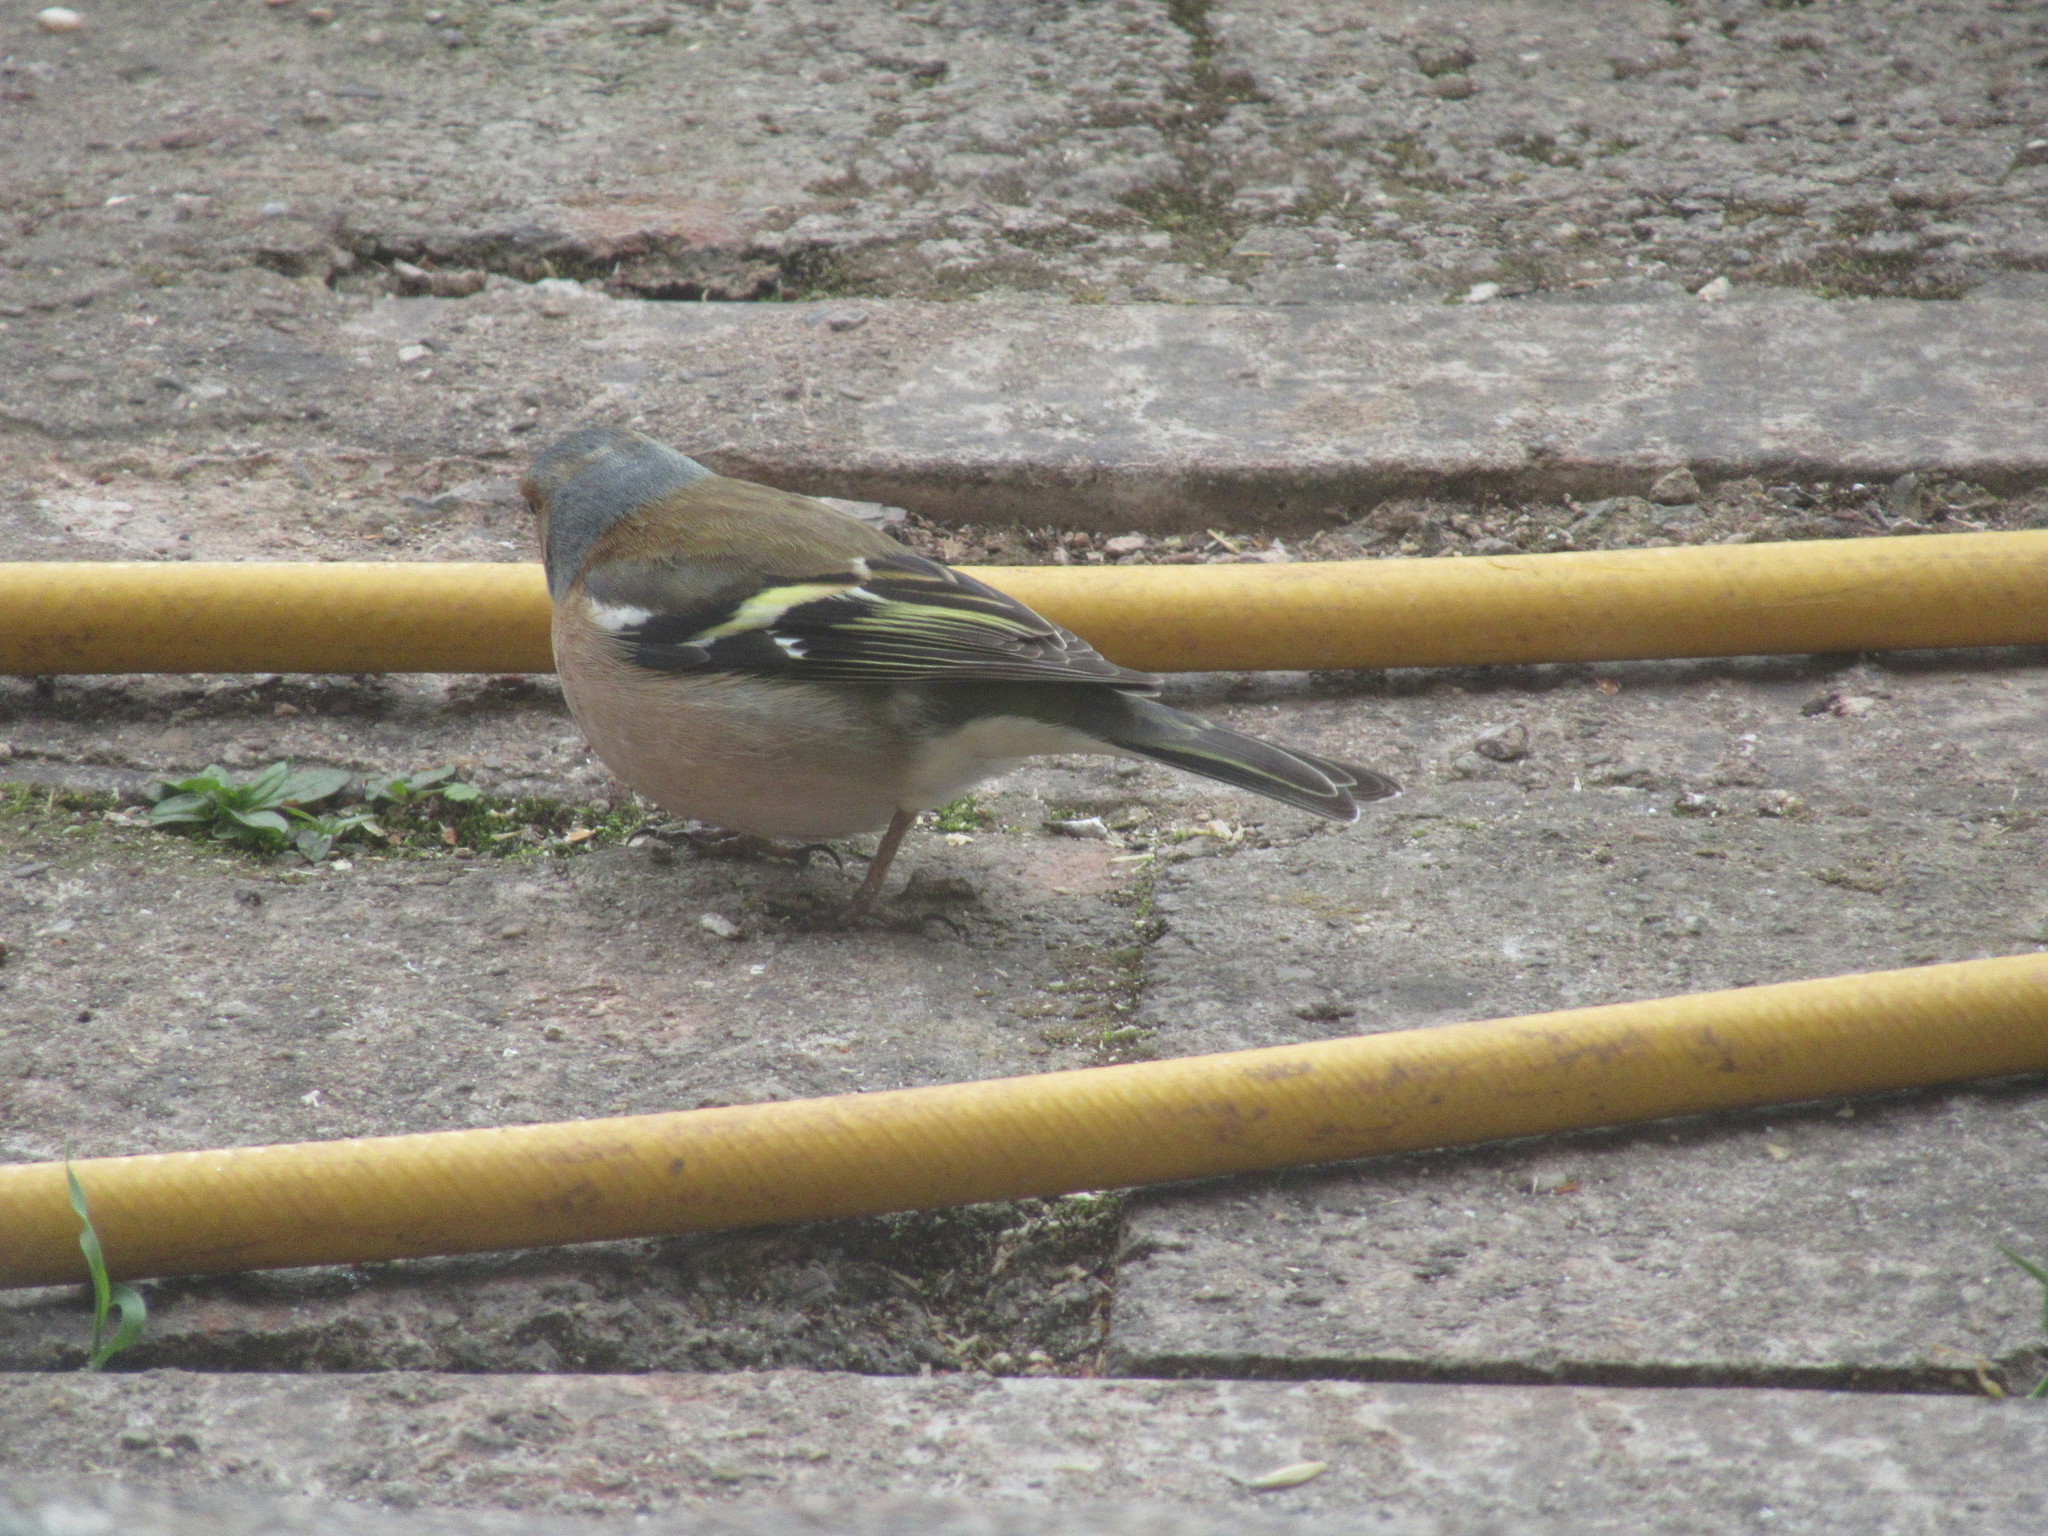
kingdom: Animalia
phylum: Chordata
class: Aves
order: Passeriformes
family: Fringillidae
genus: Fringilla
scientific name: Fringilla coelebs
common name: Common chaffinch
